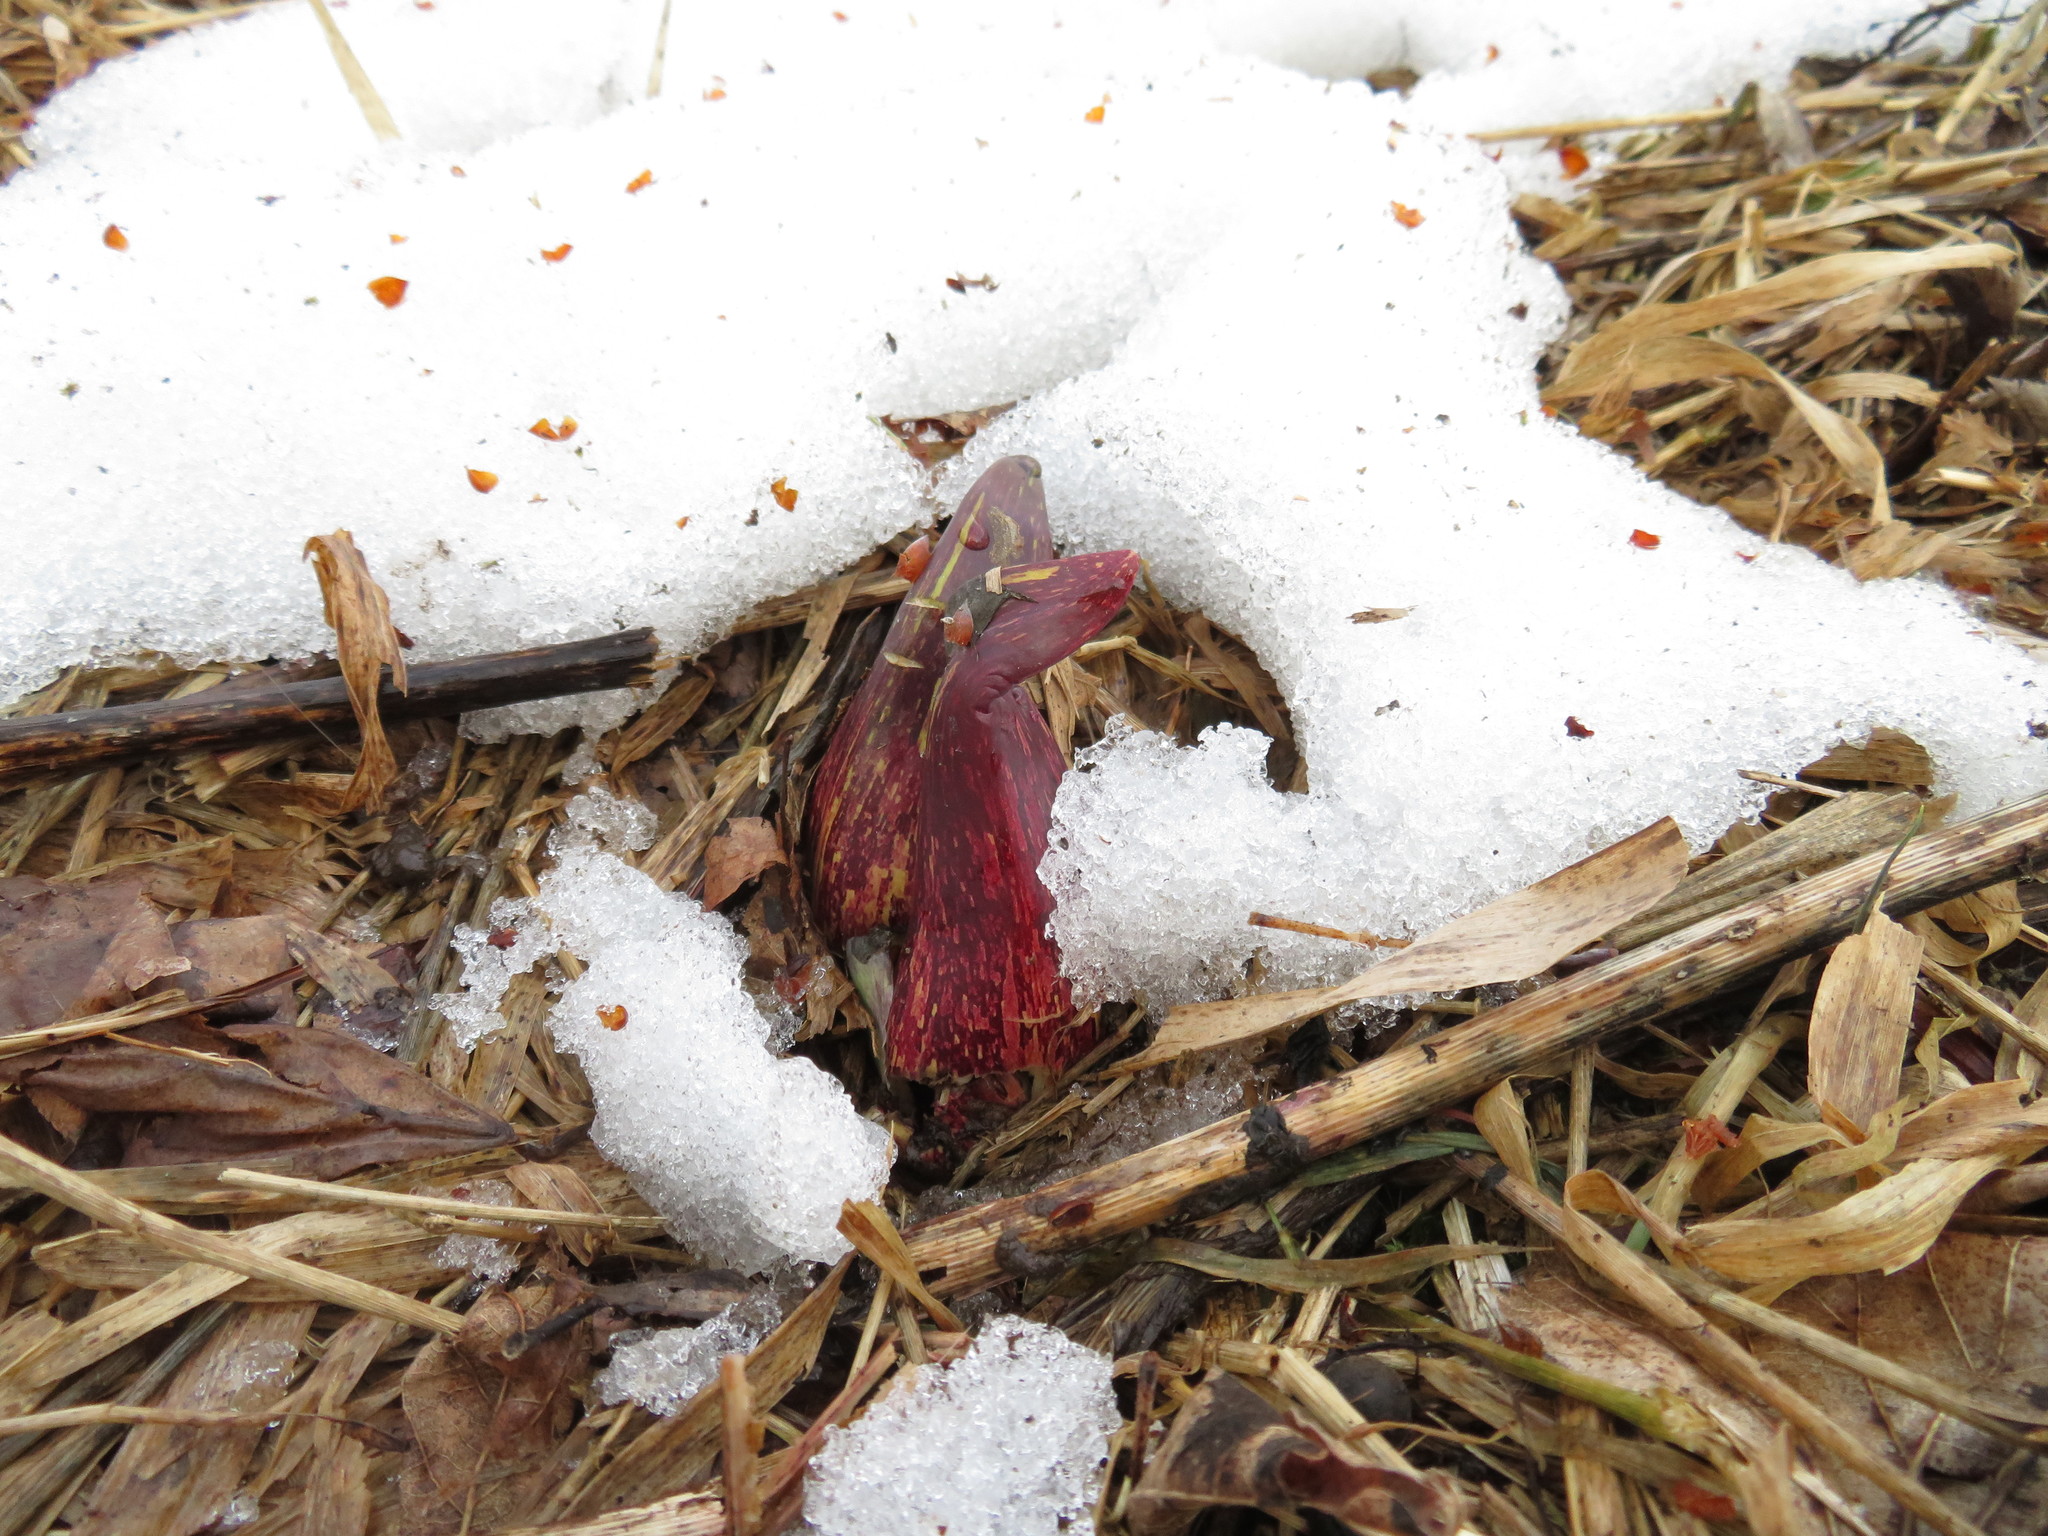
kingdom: Plantae
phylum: Tracheophyta
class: Liliopsida
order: Alismatales
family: Araceae
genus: Symplocarpus
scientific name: Symplocarpus foetidus
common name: Eastern skunk cabbage
